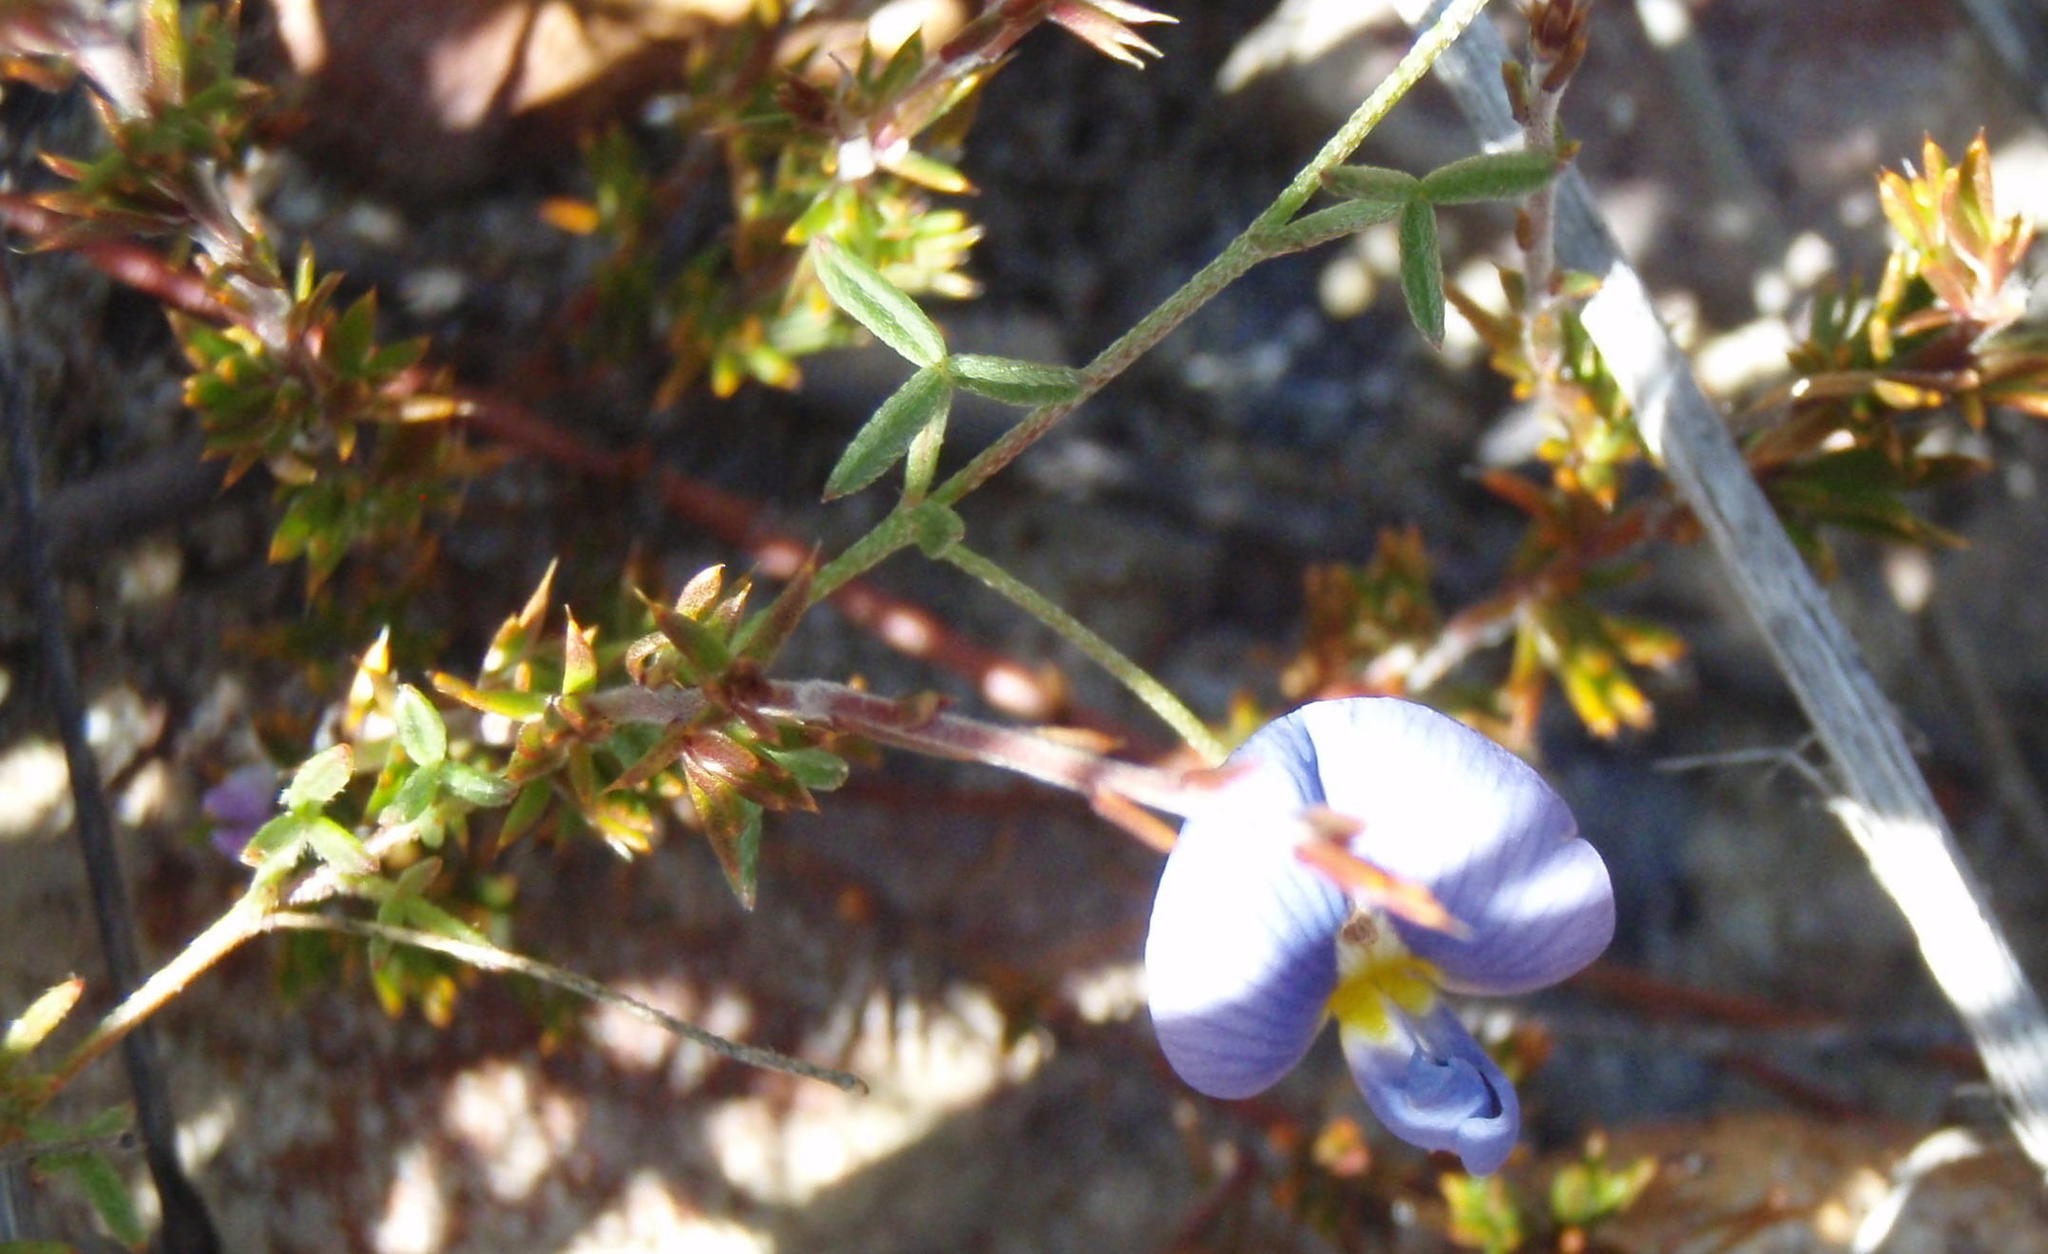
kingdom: Plantae
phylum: Tracheophyta
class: Magnoliopsida
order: Fabales
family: Fabaceae
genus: Lotononis
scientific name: Lotononis filiformis
